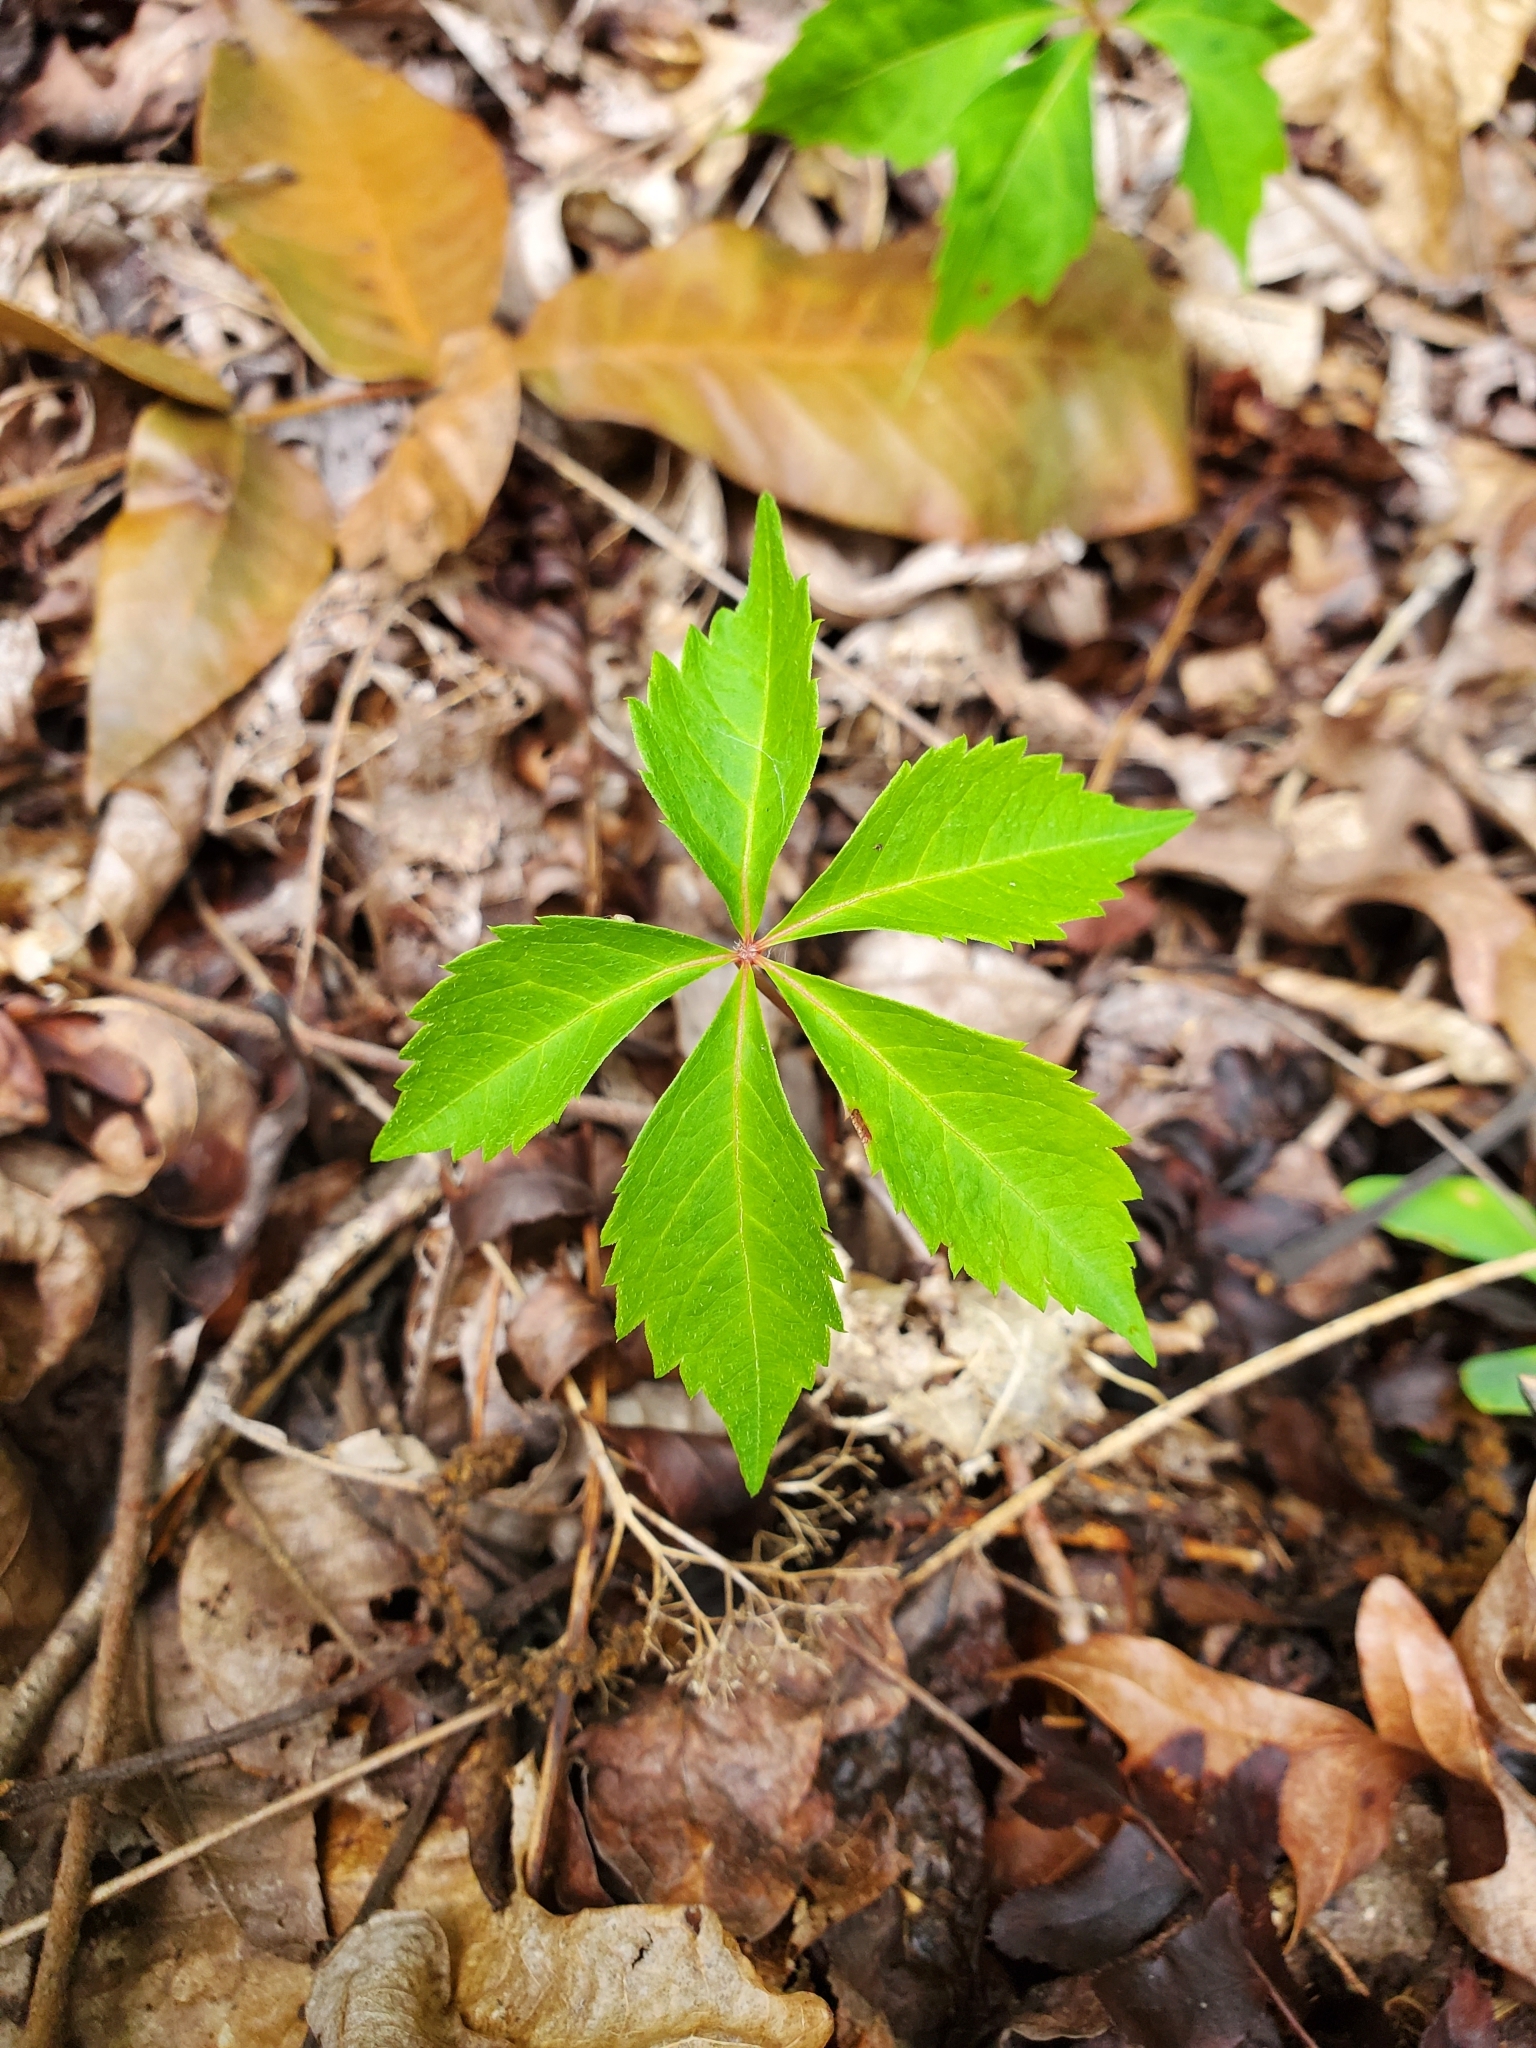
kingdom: Plantae
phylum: Tracheophyta
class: Magnoliopsida
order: Vitales
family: Vitaceae
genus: Parthenocissus
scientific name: Parthenocissus quinquefolia
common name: Virginia-creeper
